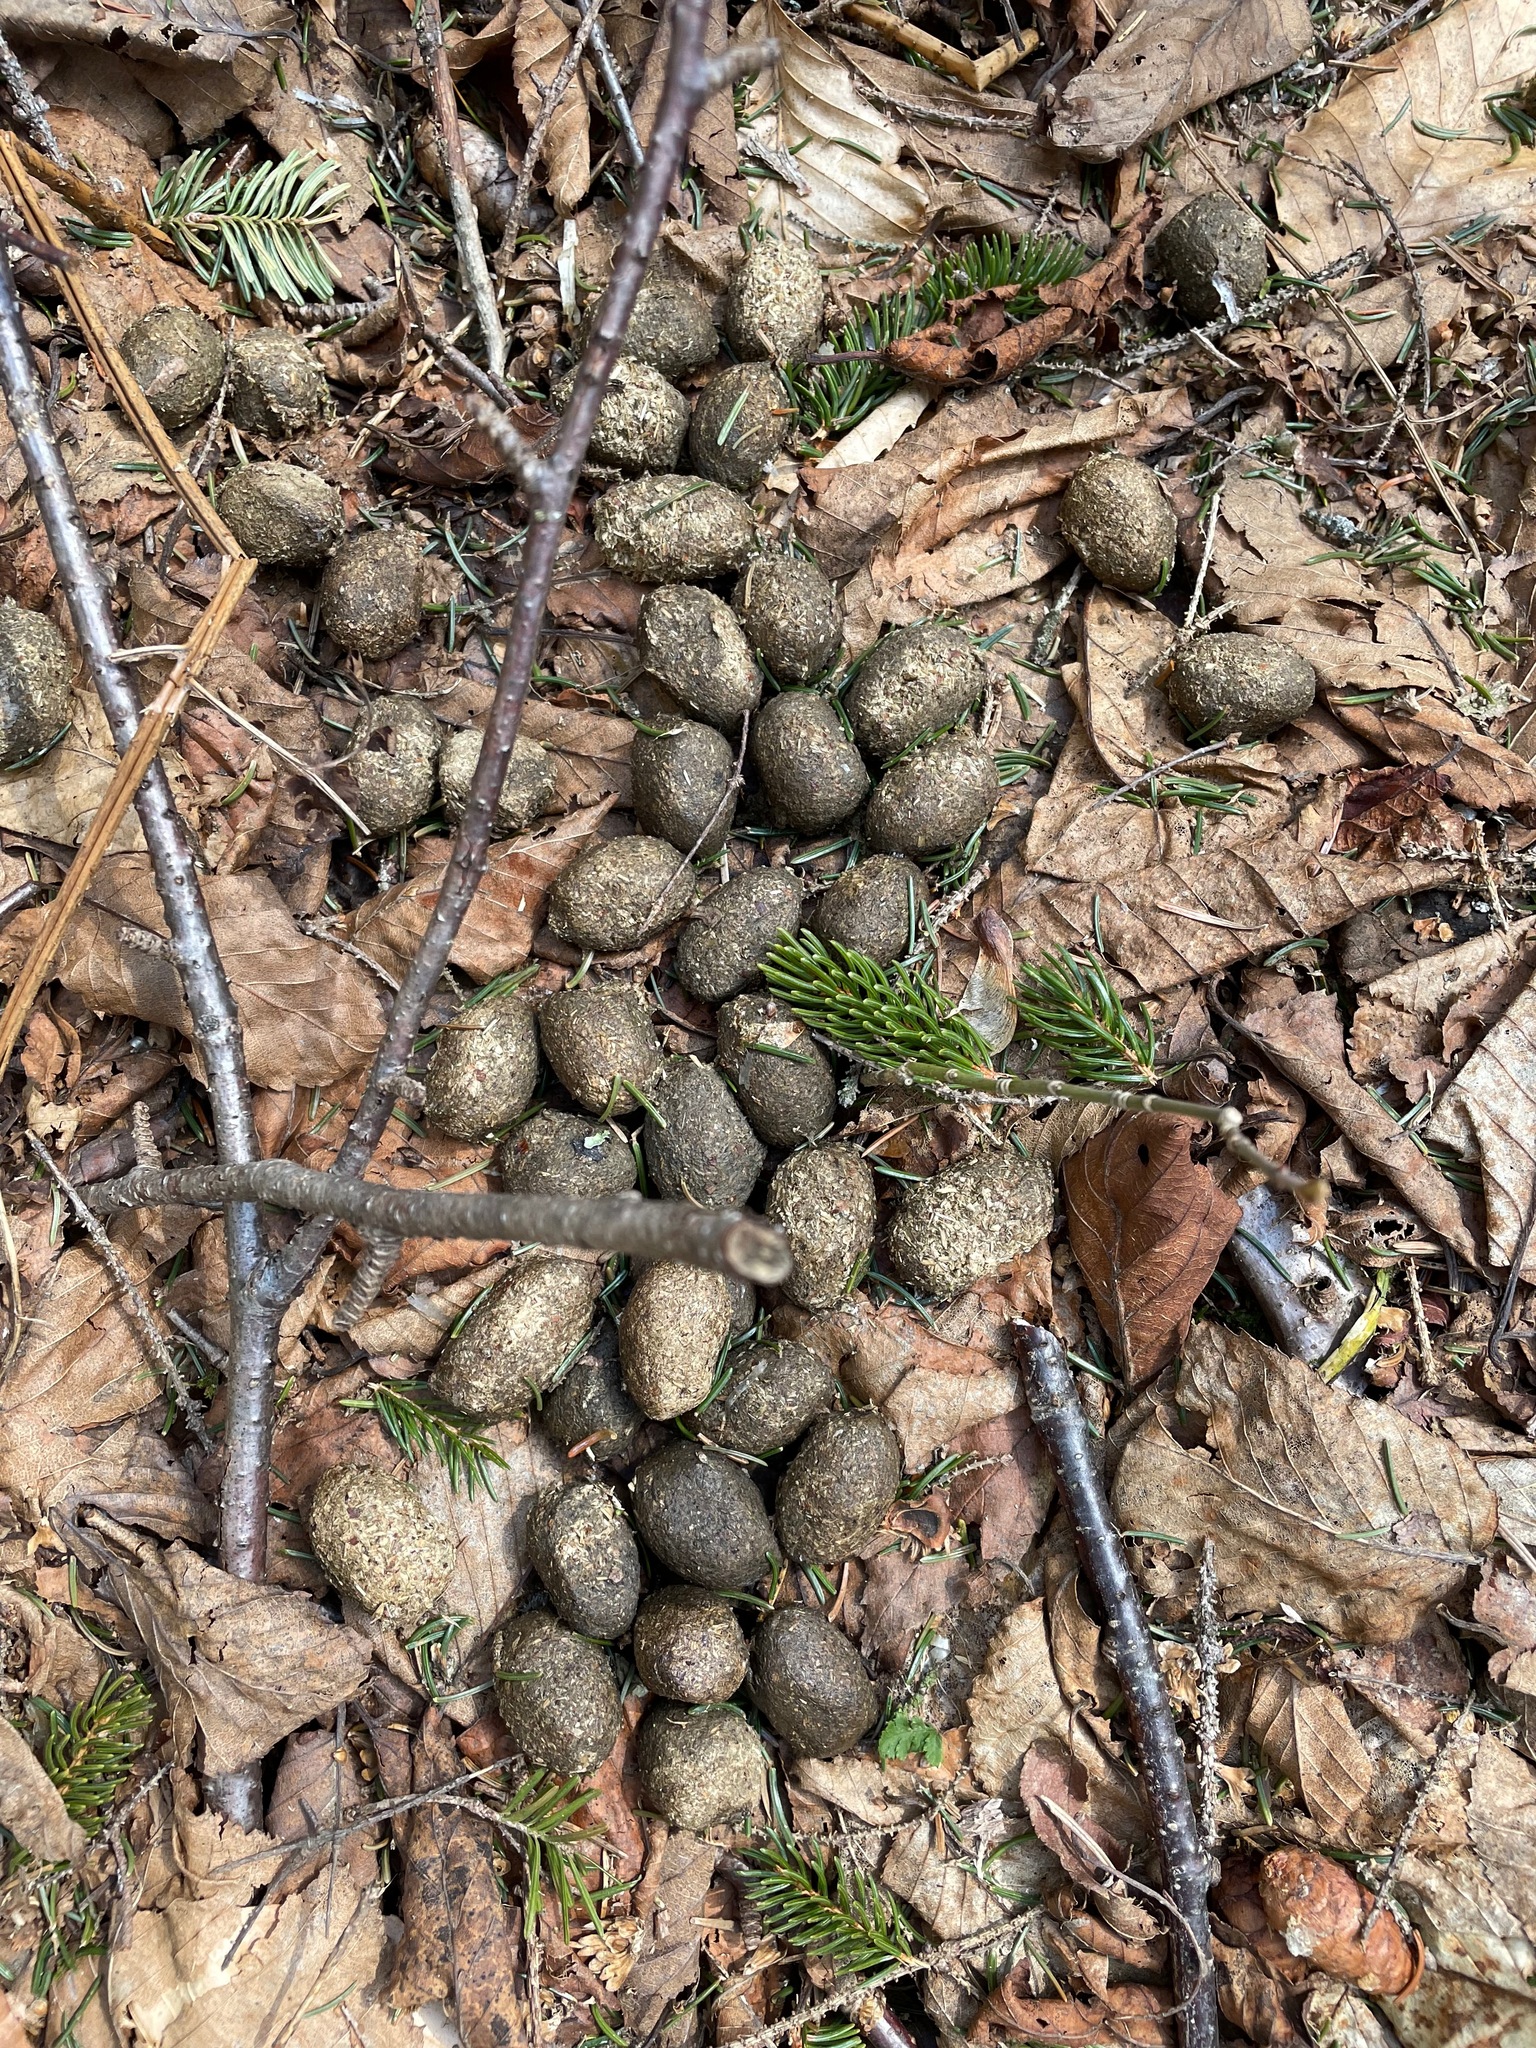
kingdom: Animalia
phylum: Chordata
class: Mammalia
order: Artiodactyla
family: Cervidae
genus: Alces
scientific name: Alces alces
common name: Moose
